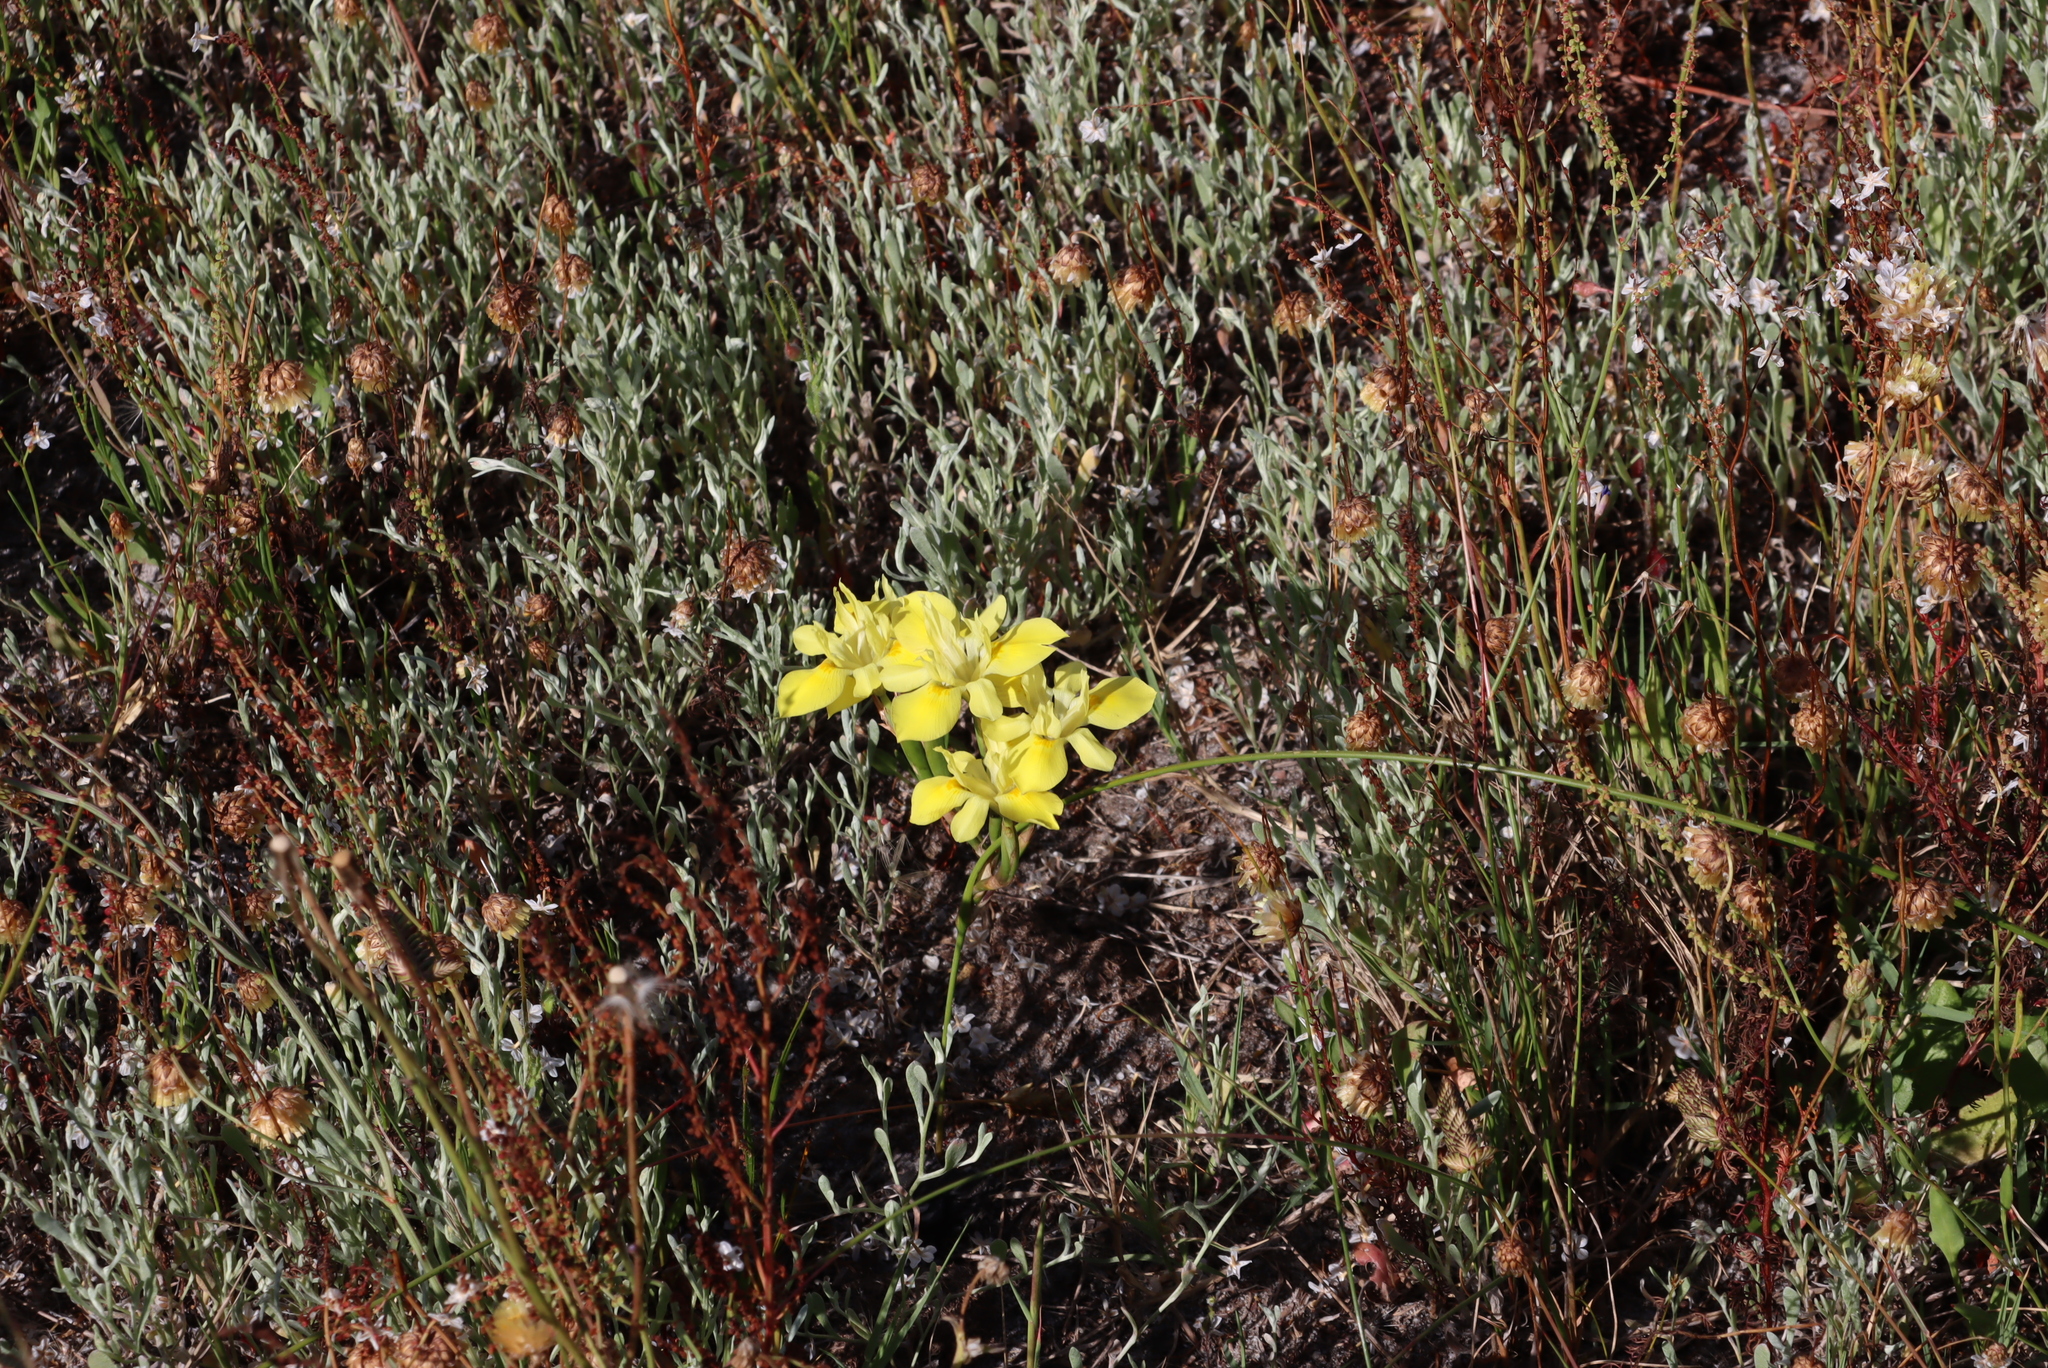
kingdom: Plantae
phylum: Tracheophyta
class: Liliopsida
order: Asparagales
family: Iridaceae
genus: Moraea
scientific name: Moraea fugax
